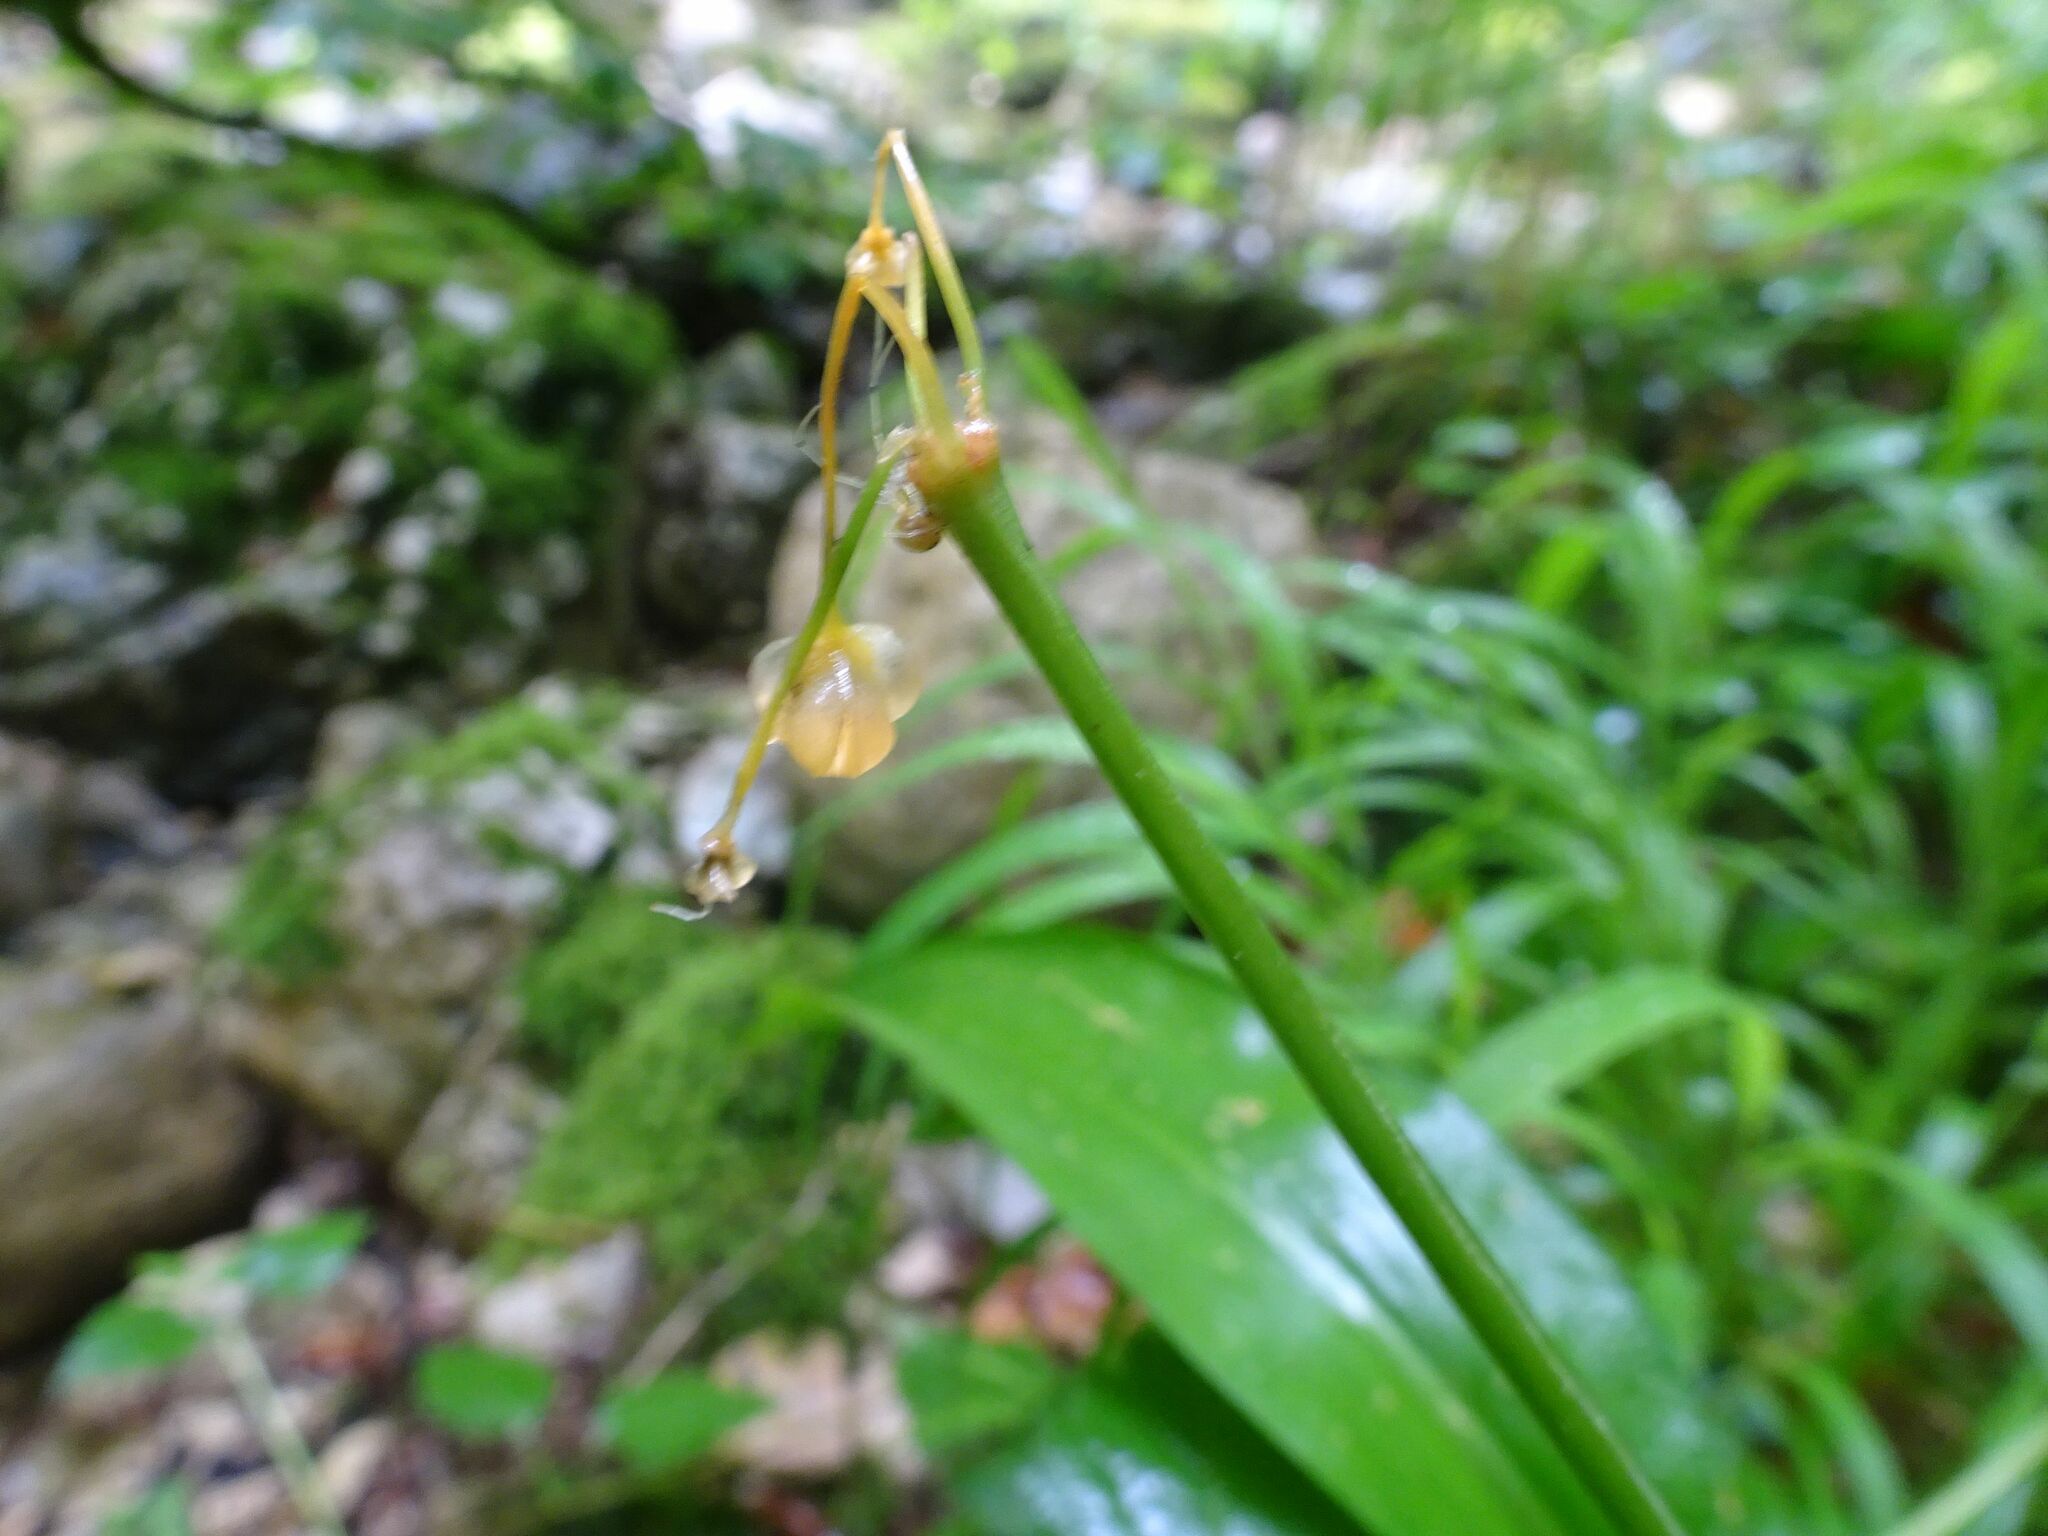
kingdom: Plantae
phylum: Tracheophyta
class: Liliopsida
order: Asparagales
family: Amaryllidaceae
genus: Allium
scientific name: Allium ursinum
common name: Ramsons
